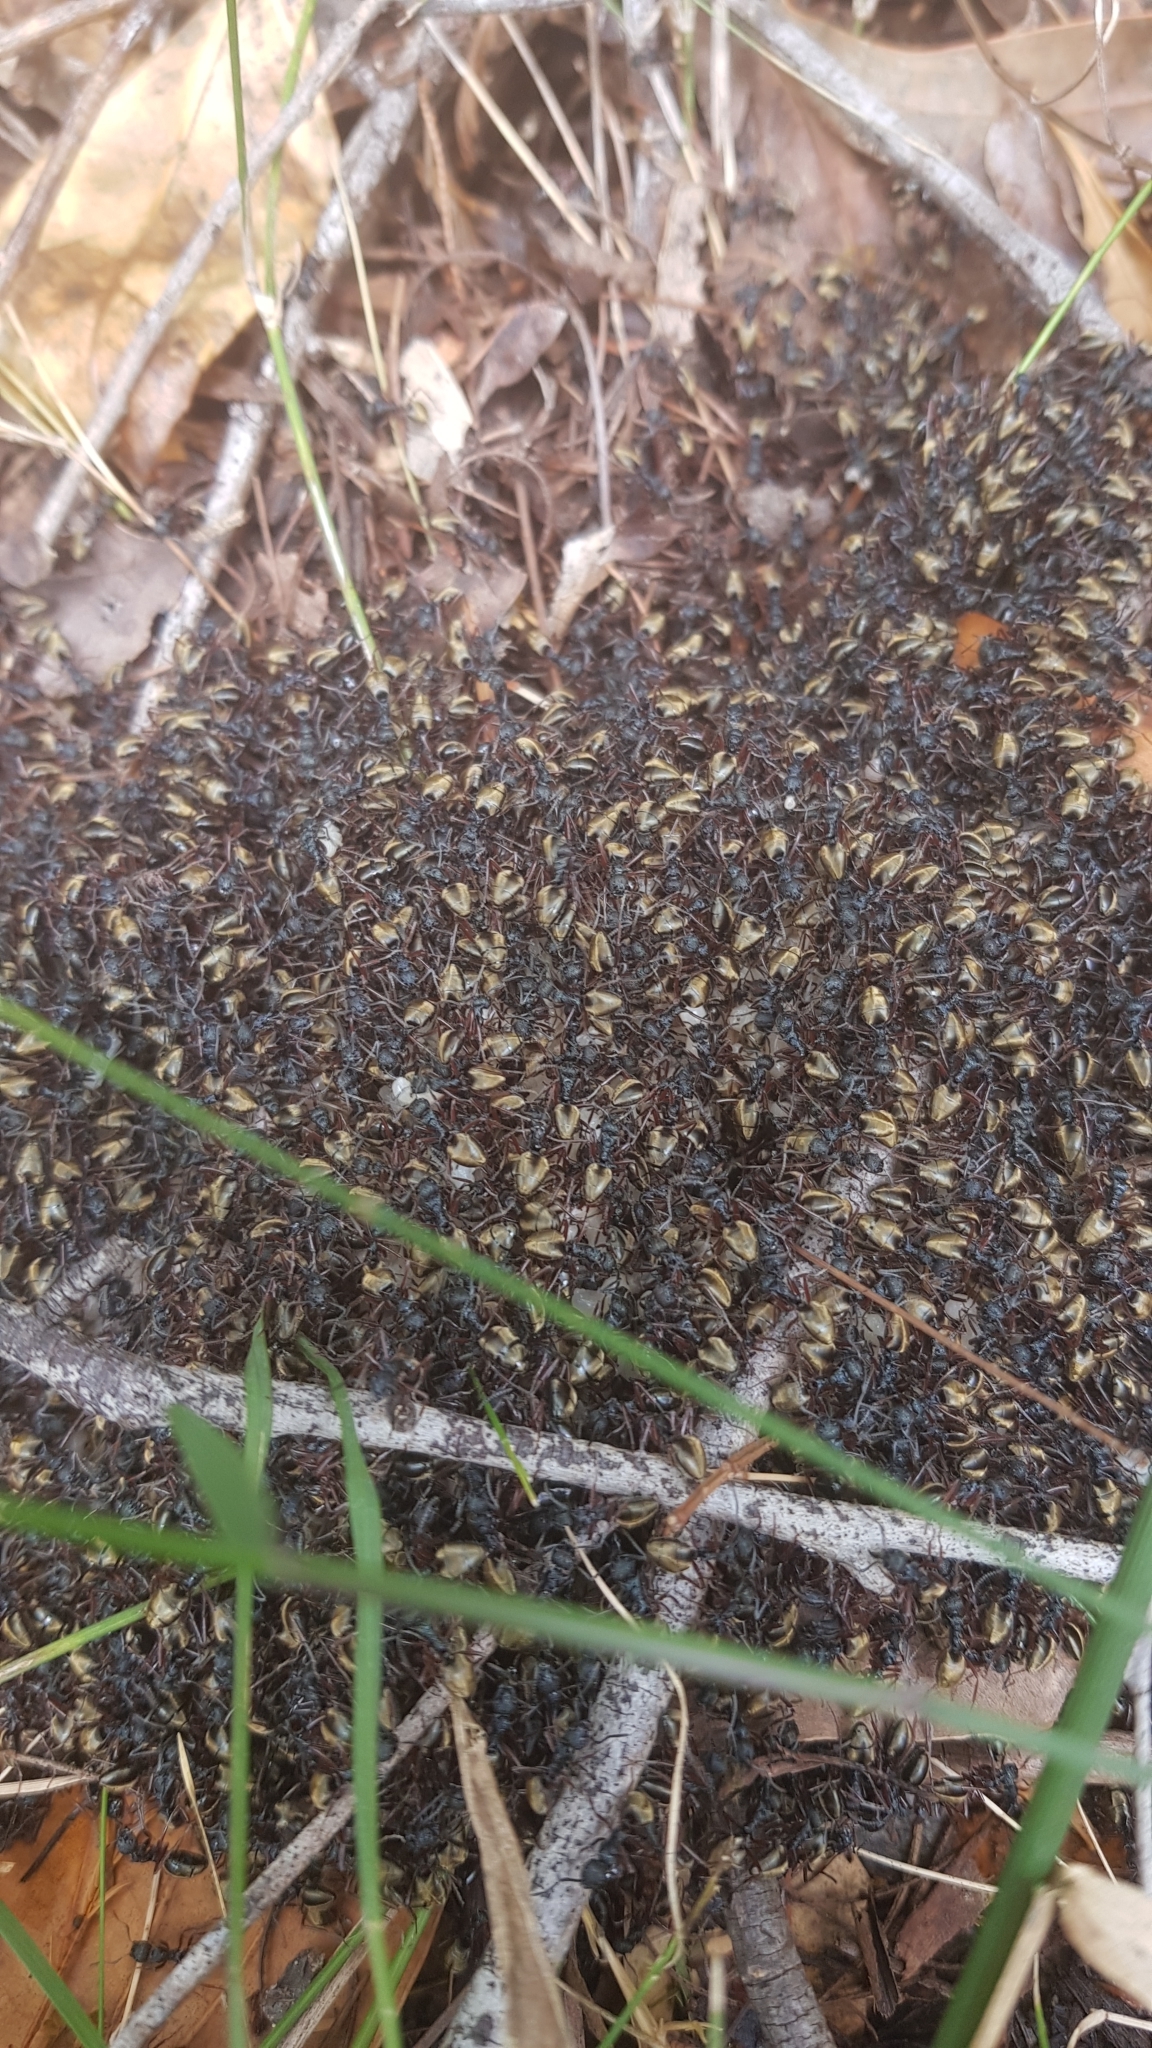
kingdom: Animalia
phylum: Arthropoda
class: Insecta
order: Hymenoptera
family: Formicidae
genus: Dolichoderus
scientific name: Dolichoderus doriae
